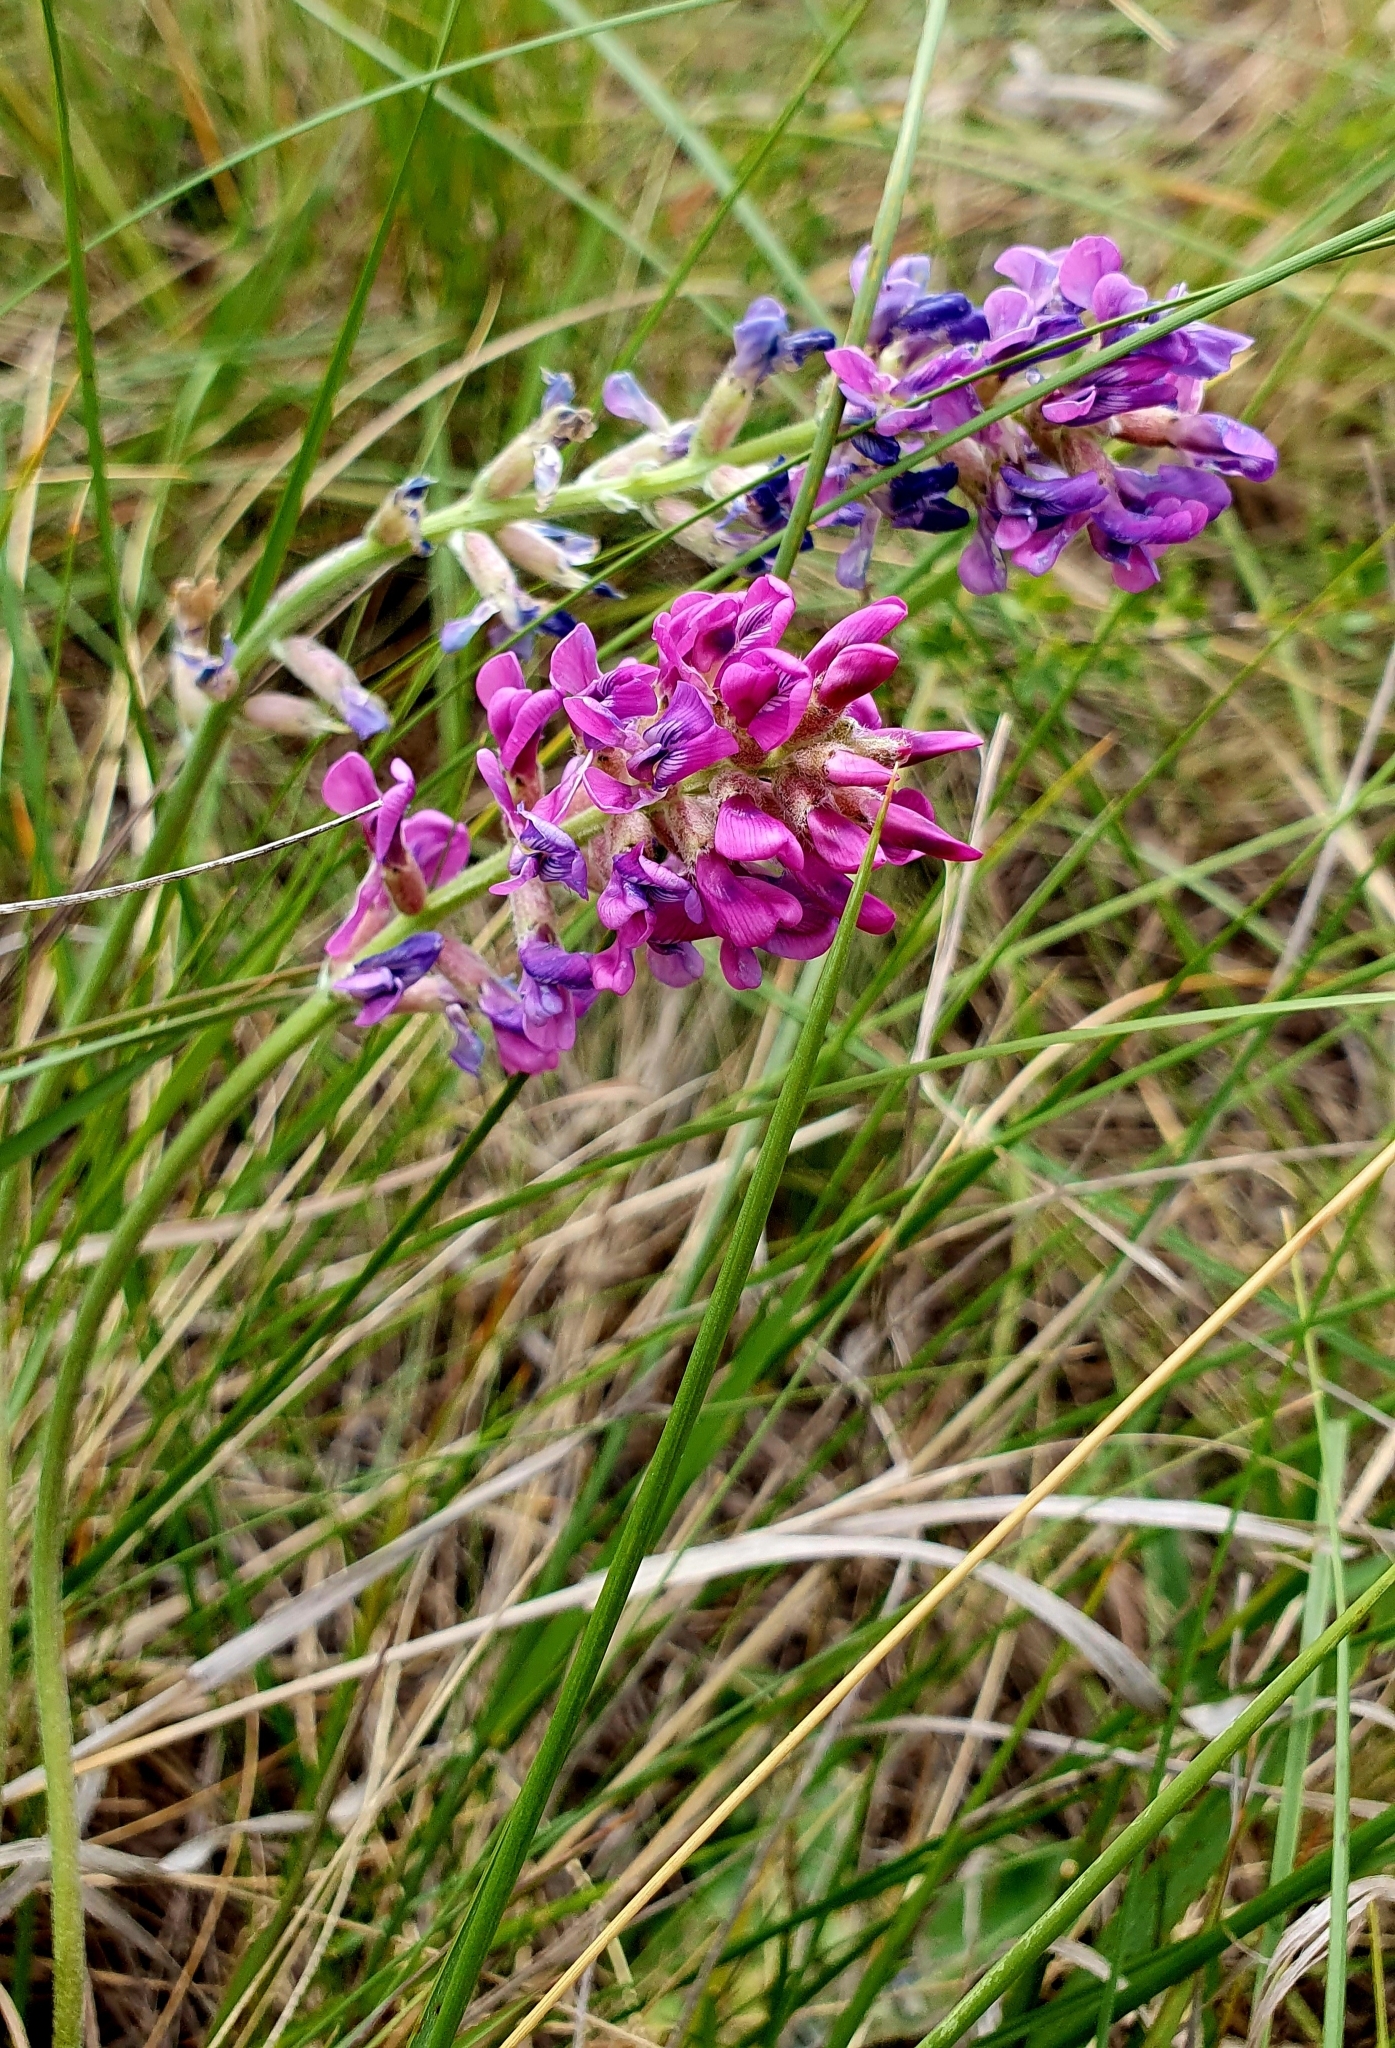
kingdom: Plantae
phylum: Tracheophyta
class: Magnoliopsida
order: Fabales
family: Fabaceae
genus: Oxytropis
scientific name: Oxytropis knjazevii
